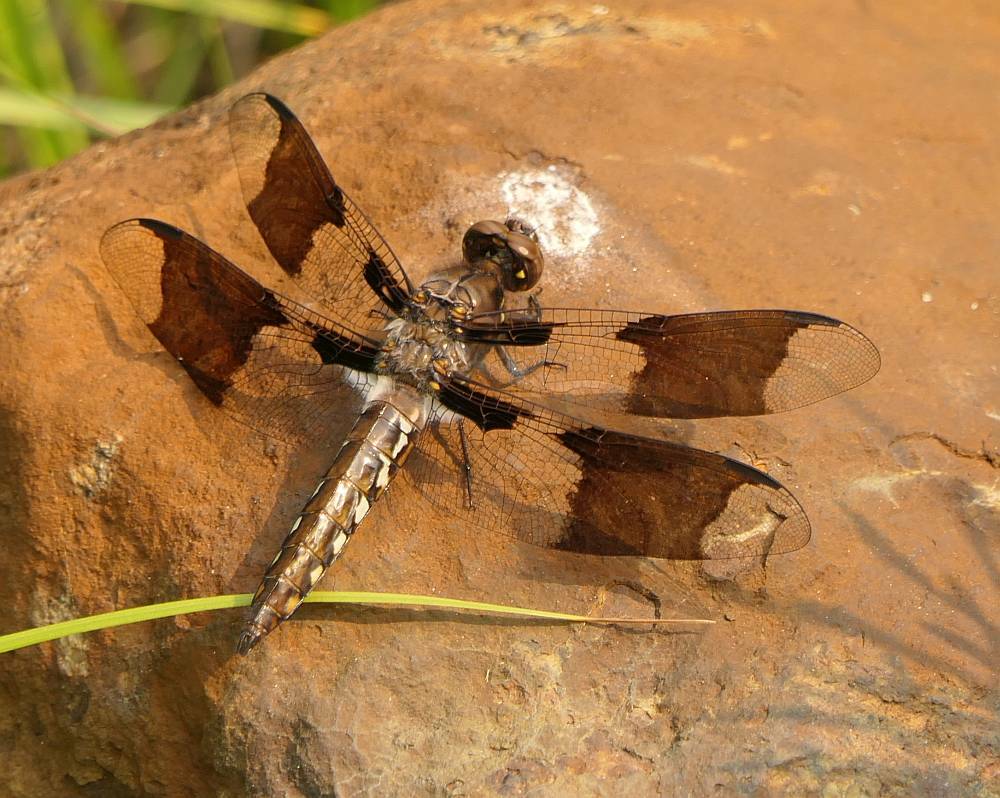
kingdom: Animalia
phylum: Arthropoda
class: Insecta
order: Odonata
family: Libellulidae
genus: Plathemis
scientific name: Plathemis lydia
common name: Common whitetail
